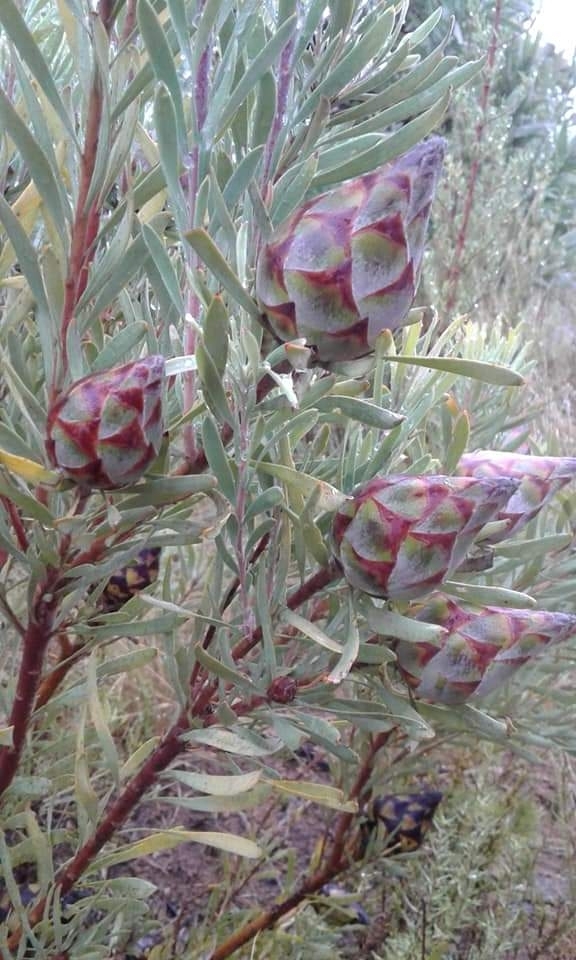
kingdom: Plantae
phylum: Tracheophyta
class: Magnoliopsida
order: Proteales
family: Proteaceae
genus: Leucadendron
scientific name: Leucadendron rubrum
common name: Spinning top
